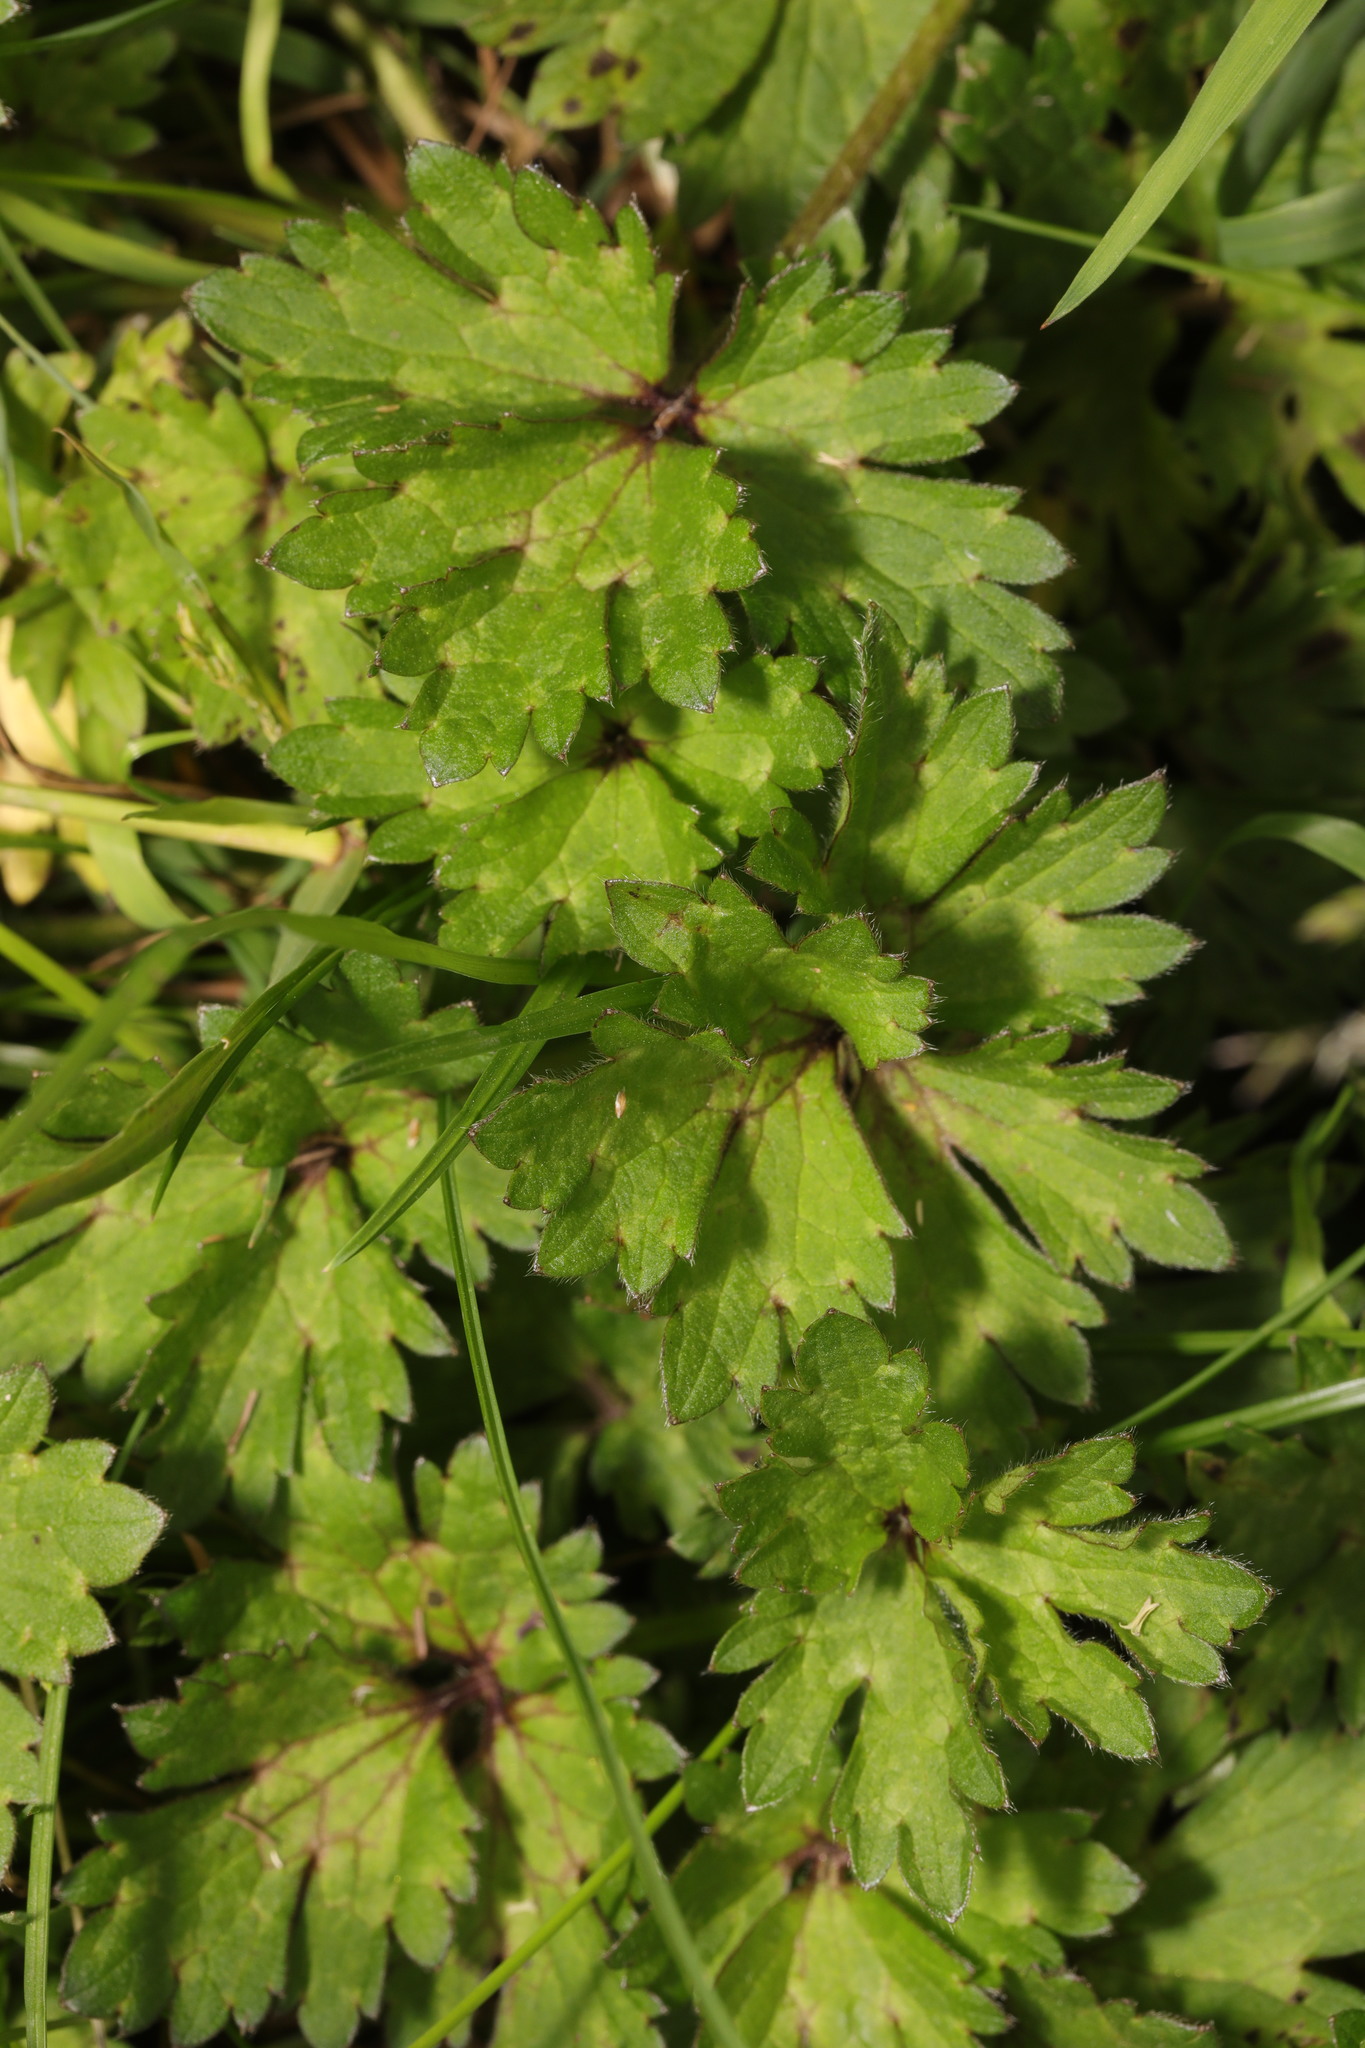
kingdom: Plantae
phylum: Tracheophyta
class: Magnoliopsida
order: Ranunculales
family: Ranunculaceae
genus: Ranunculus
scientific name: Ranunculus repens
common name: Creeping buttercup
